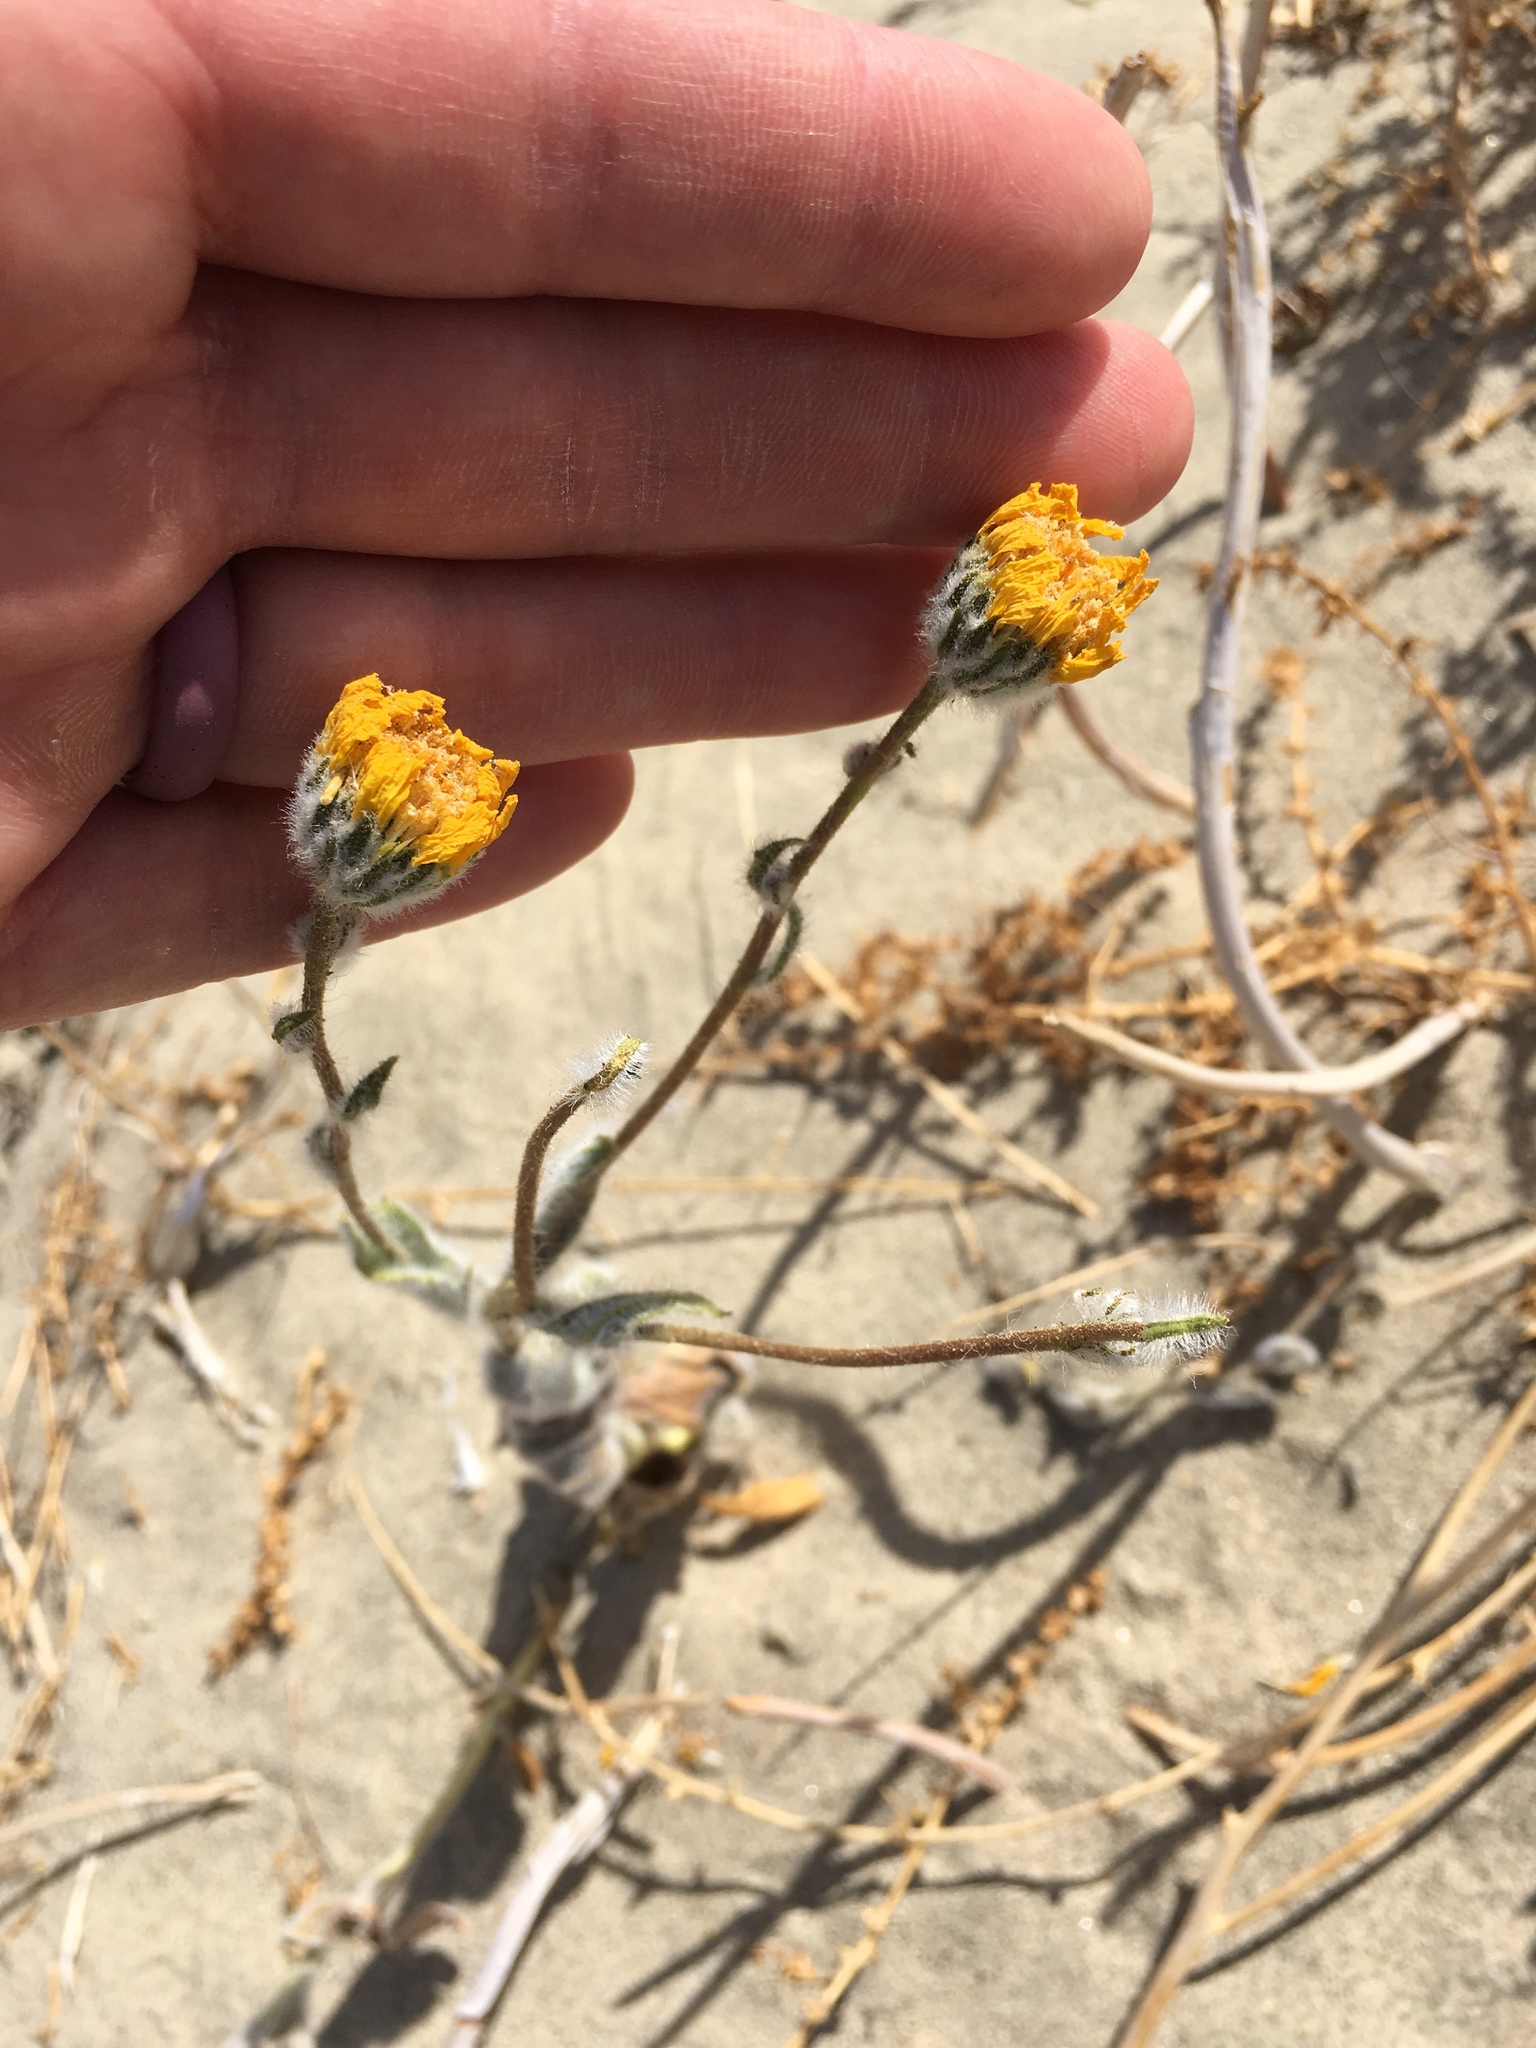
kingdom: Plantae
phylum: Tracheophyta
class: Magnoliopsida
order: Asterales
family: Asteraceae
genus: Geraea
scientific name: Geraea canescens
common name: Desert-gold
